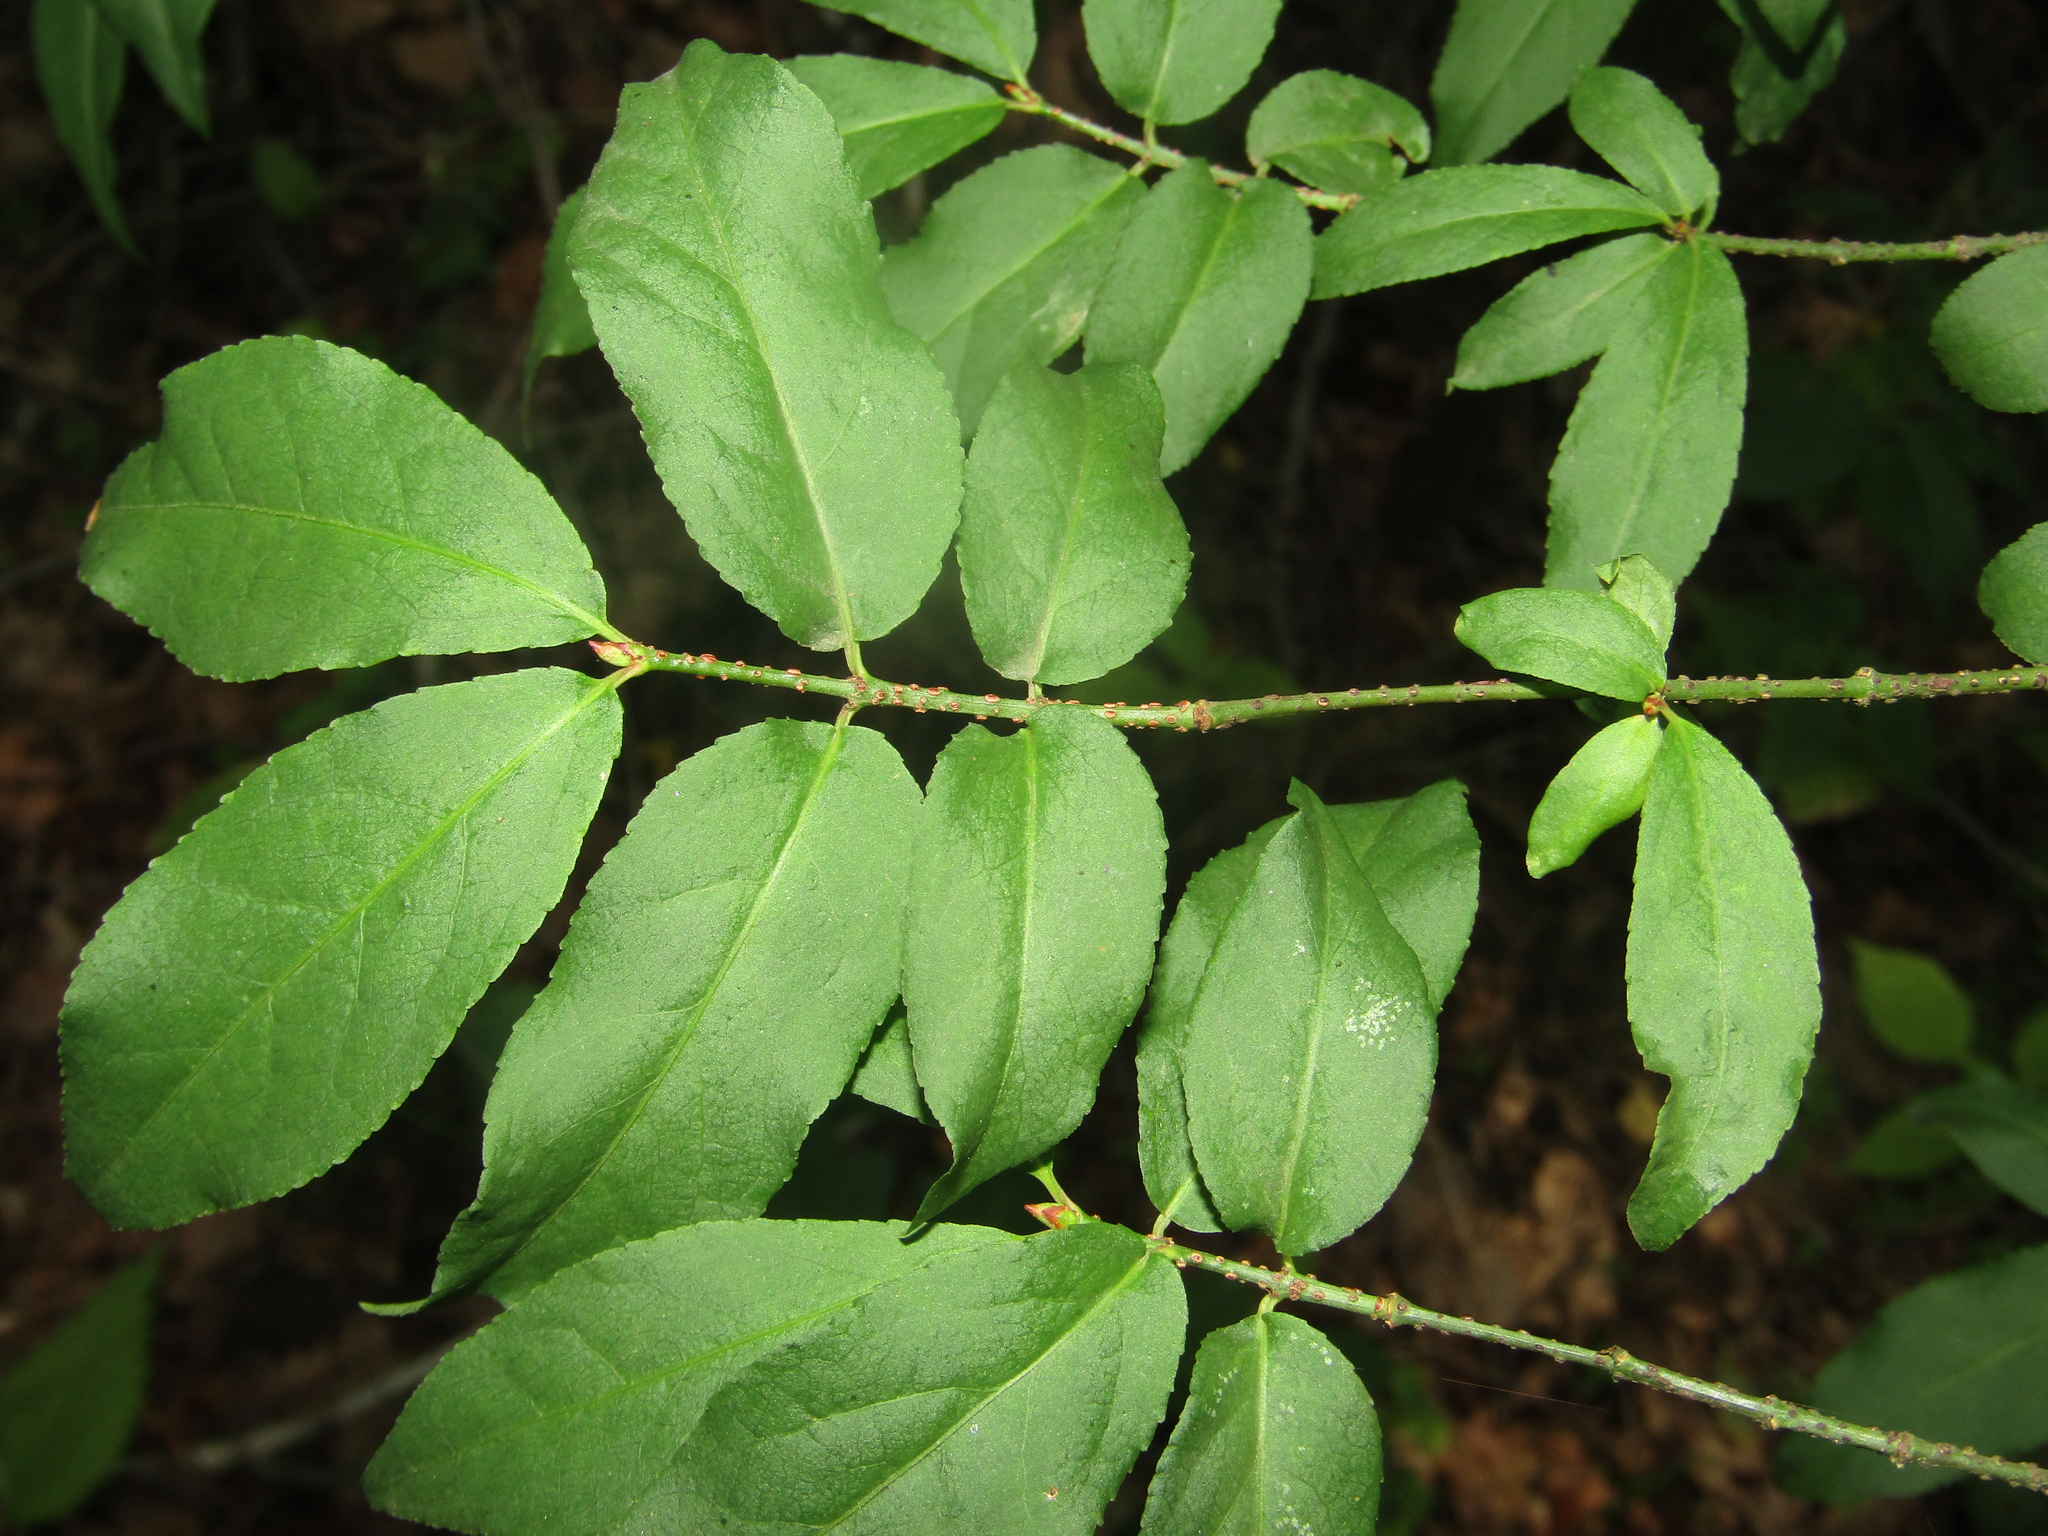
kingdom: Plantae
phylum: Tracheophyta
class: Magnoliopsida
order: Celastrales
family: Celastraceae
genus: Euonymus
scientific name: Euonymus verrucosus
